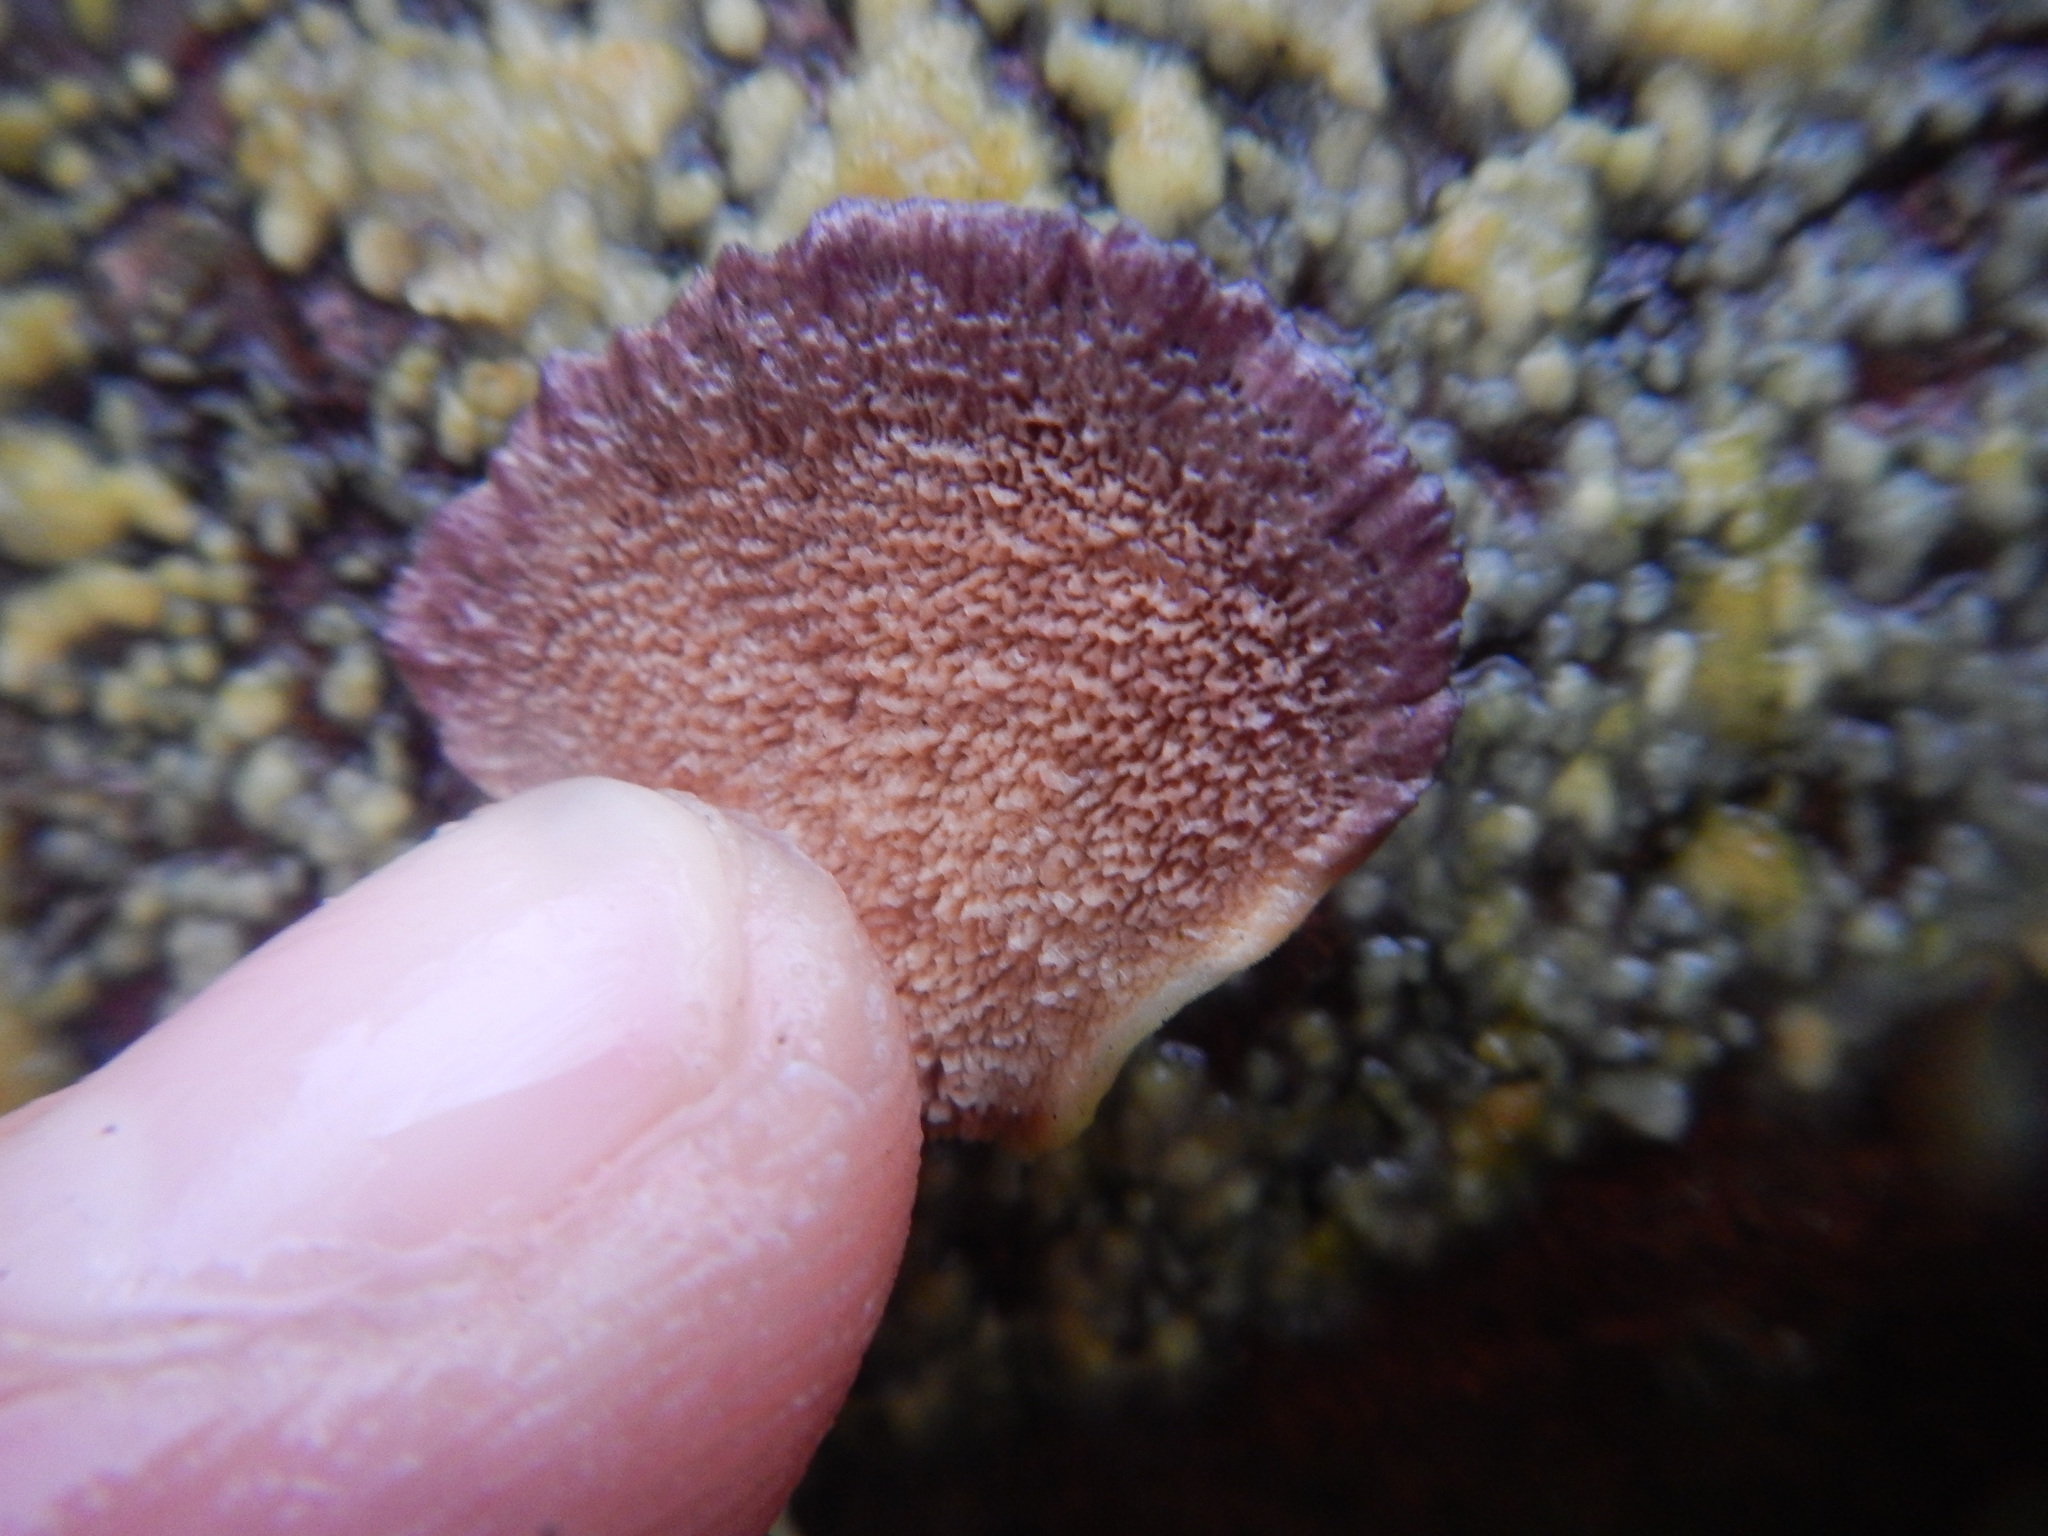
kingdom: Fungi
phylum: Basidiomycota
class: Agaricomycetes
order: Hymenochaetales
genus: Trichaptum
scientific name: Trichaptum biforme
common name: Violet-toothed polypore
